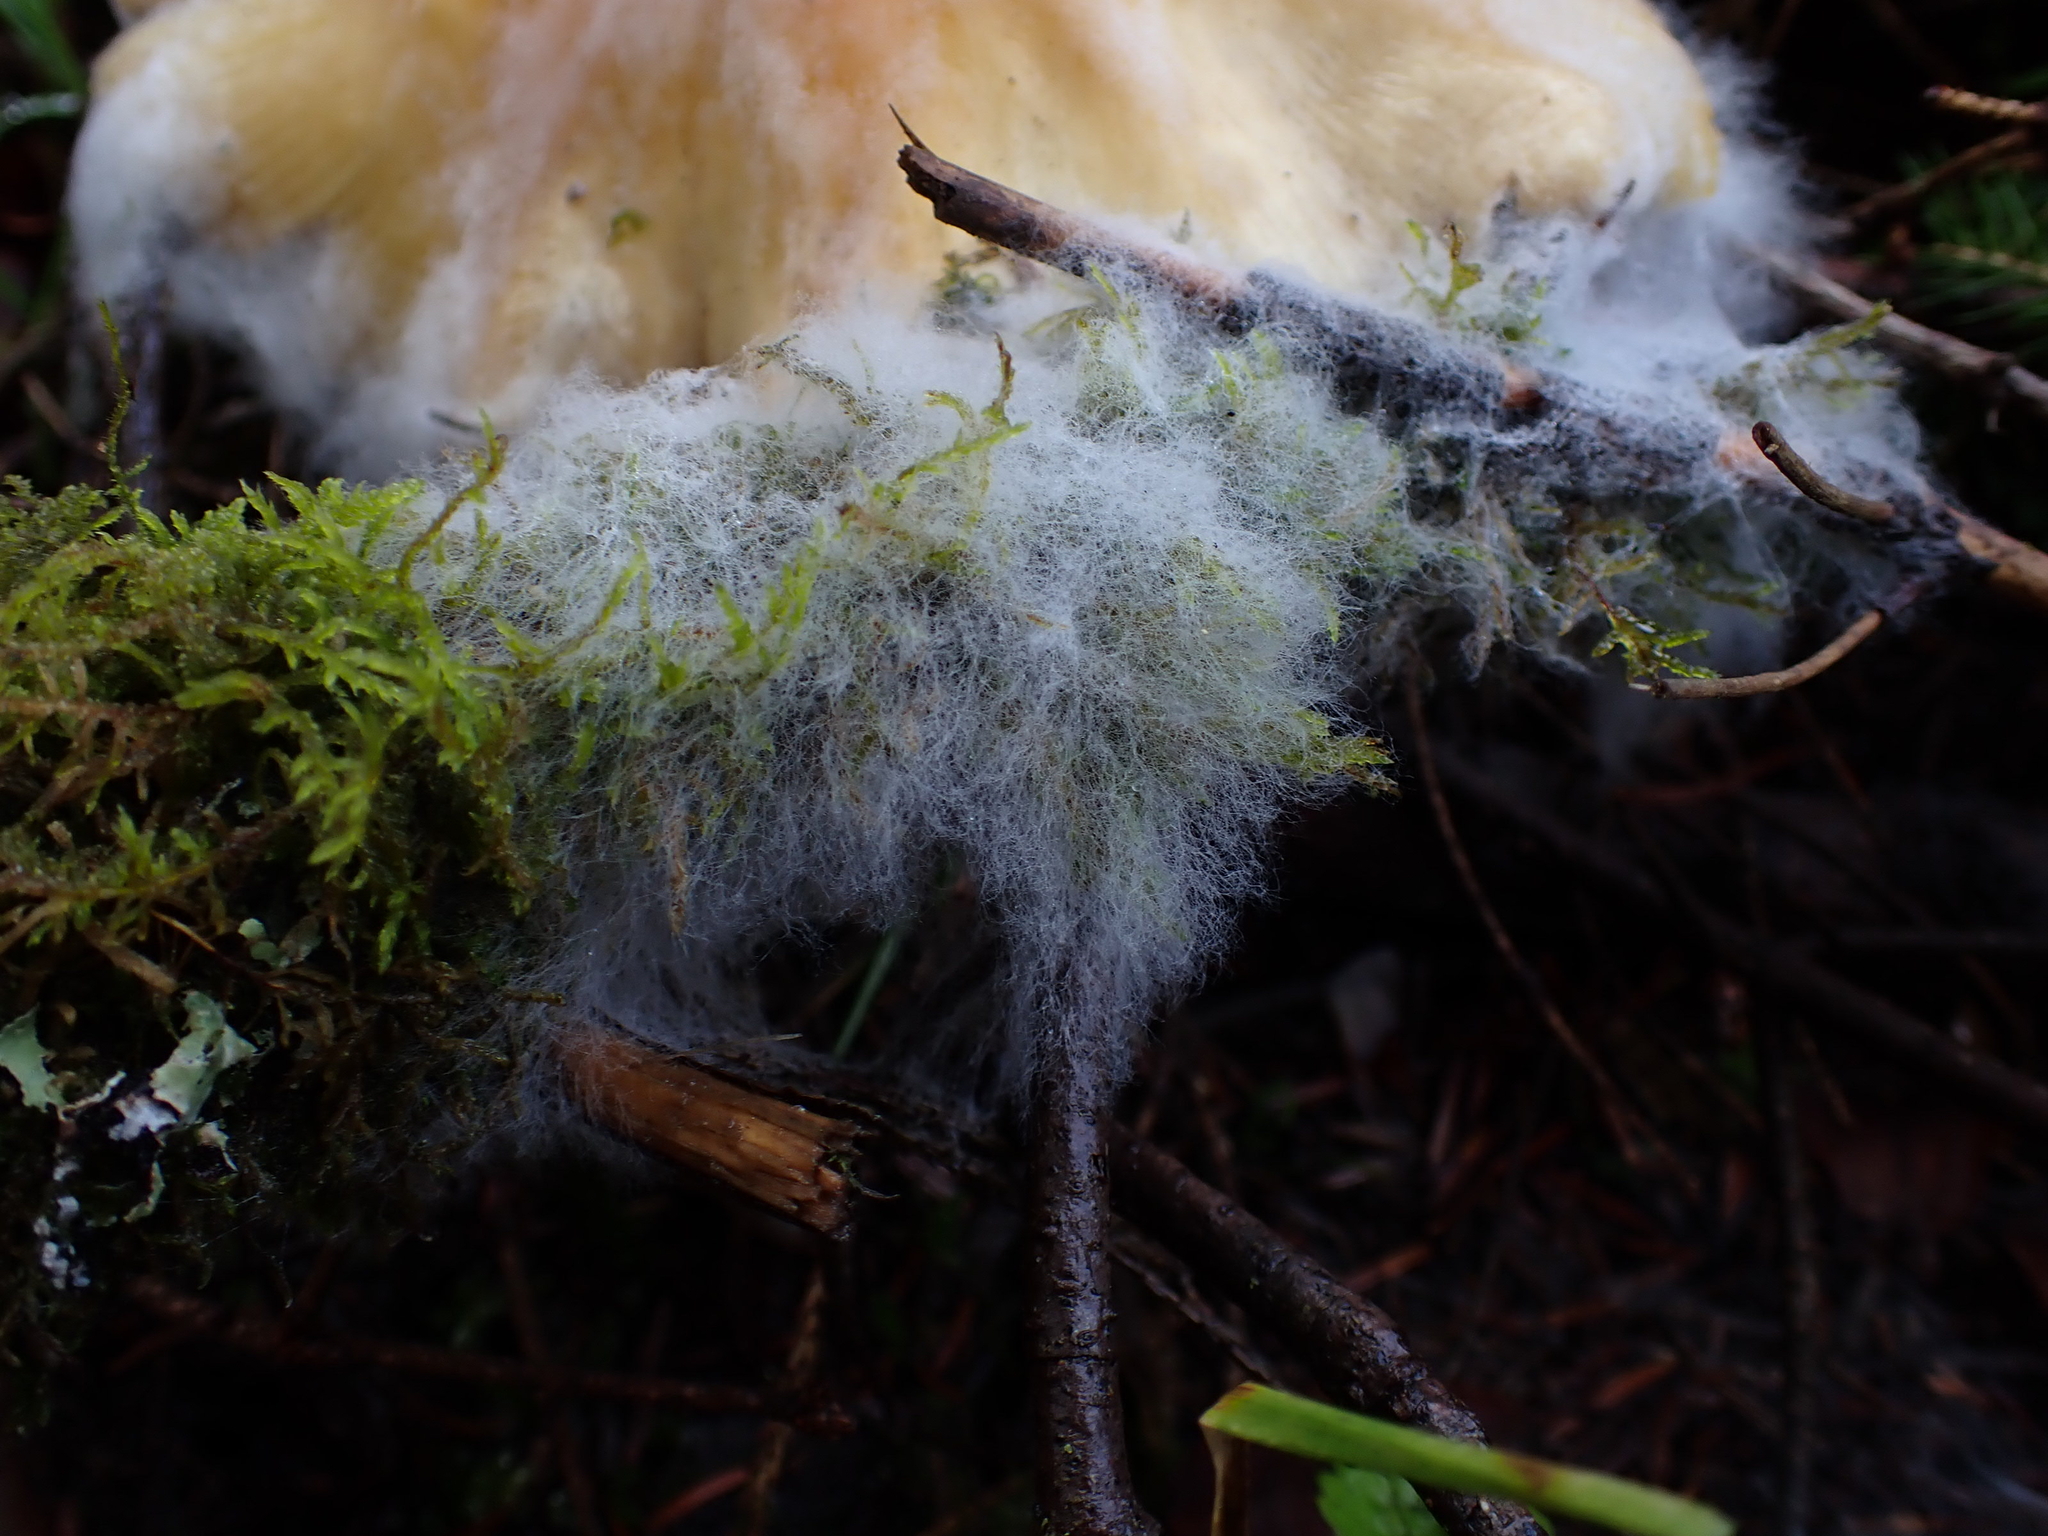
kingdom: Fungi
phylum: Mucoromycota
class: Mucoromycetes
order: Mucorales
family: Rhizopodaceae
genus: Syzygites
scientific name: Syzygites megalocarpus
